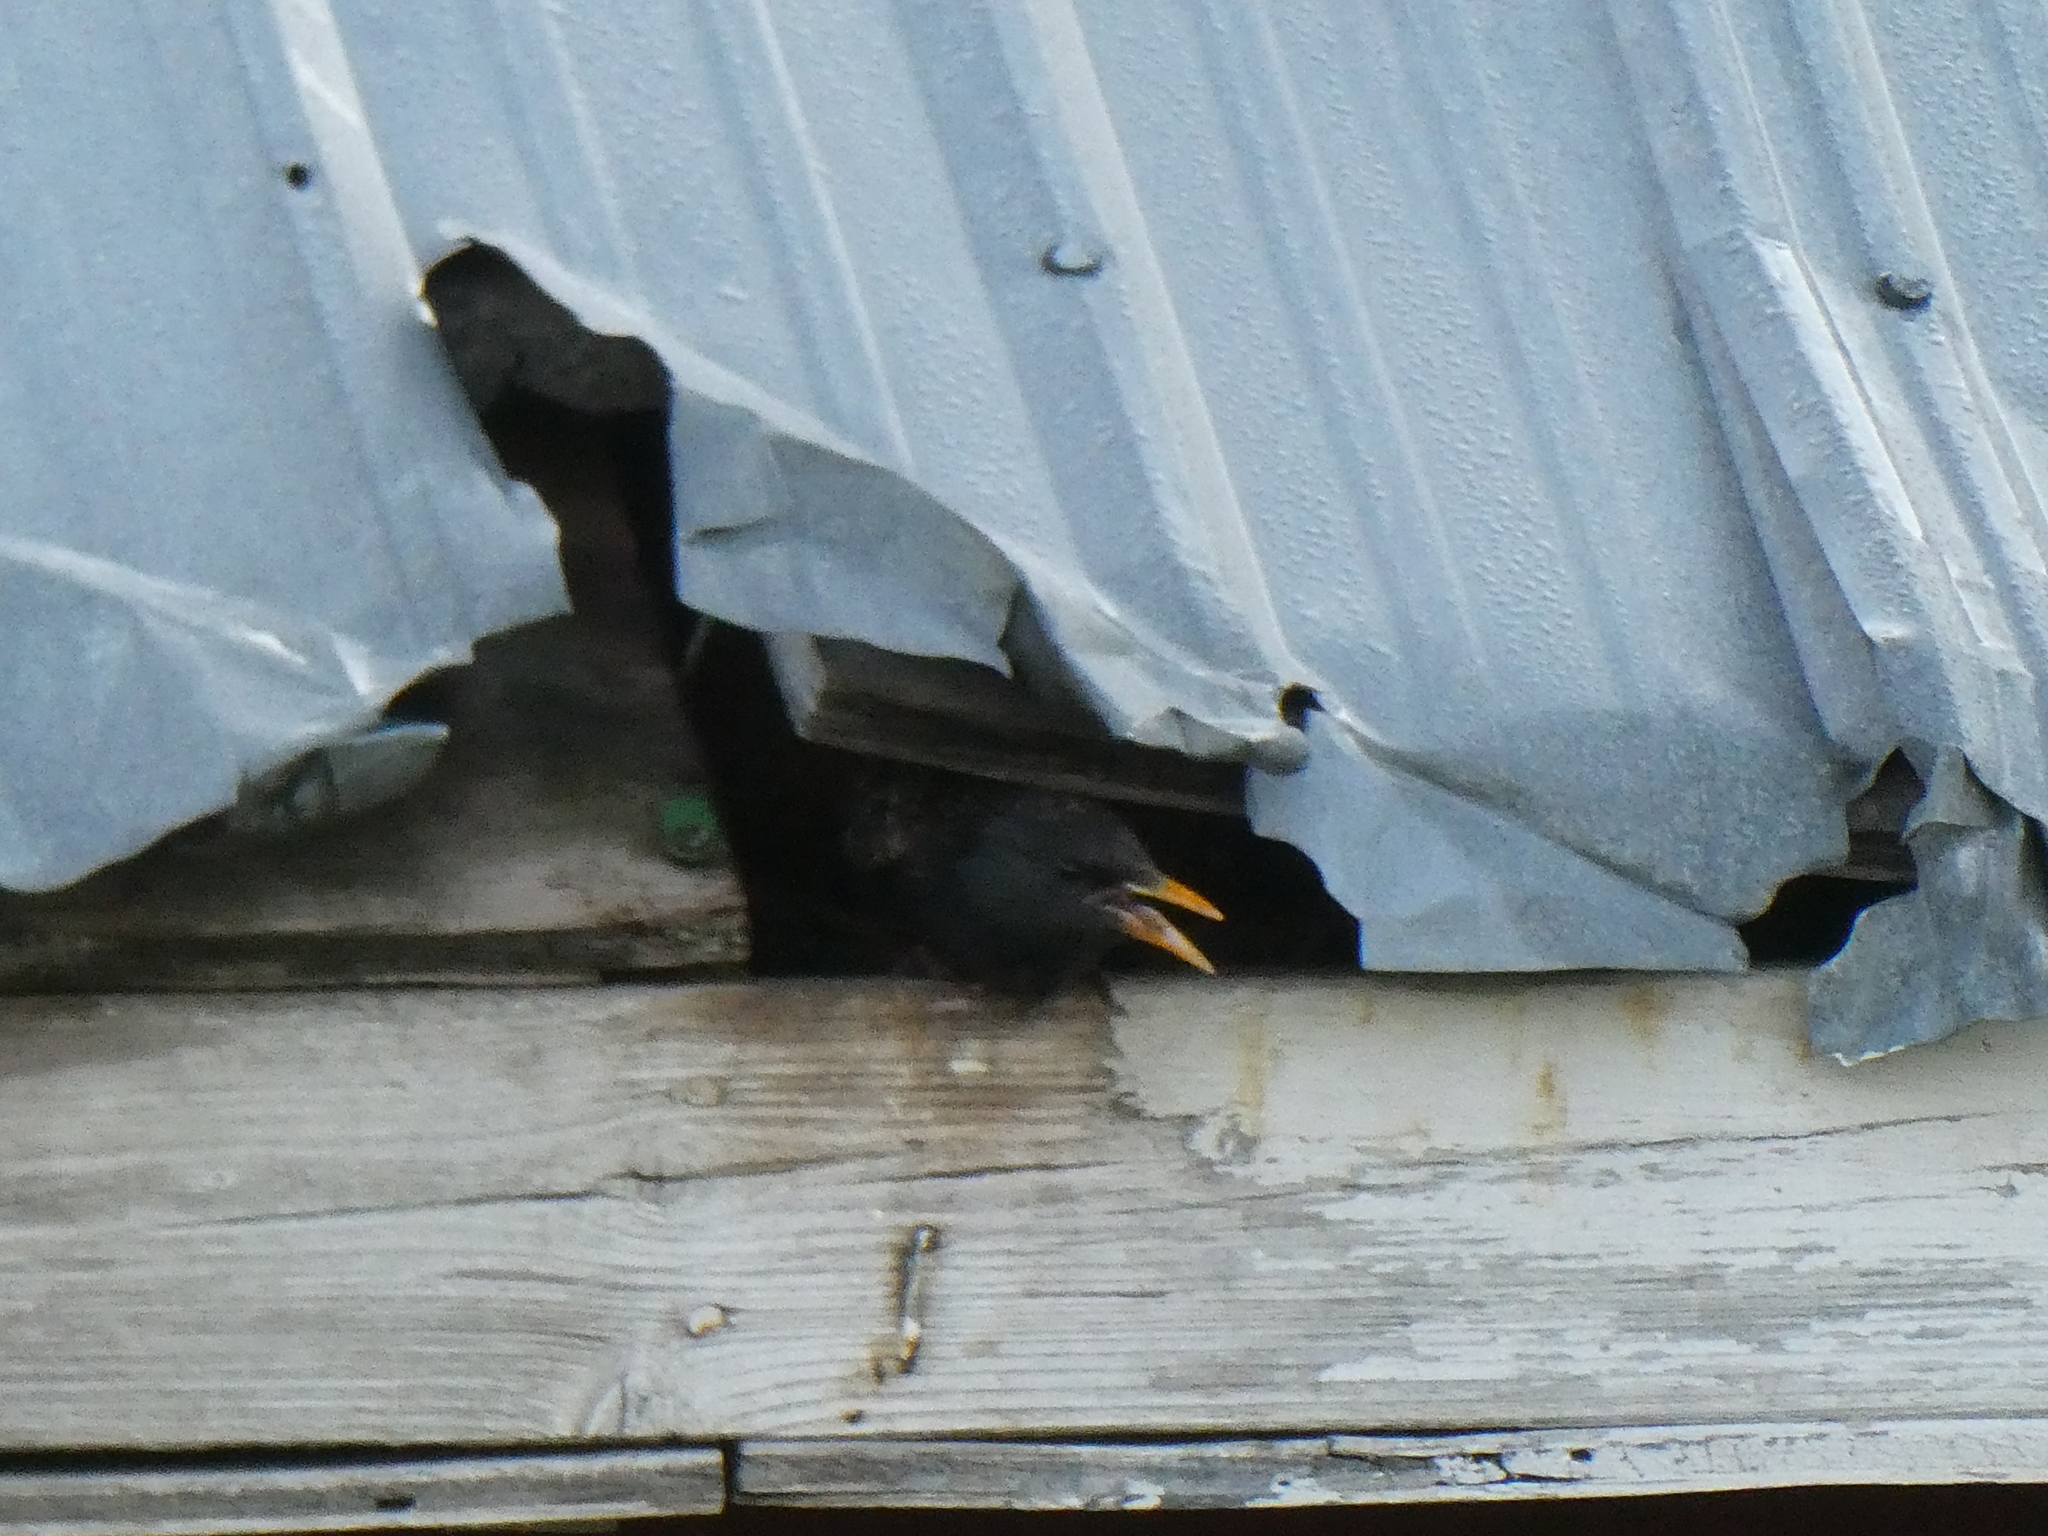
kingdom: Animalia
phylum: Chordata
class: Aves
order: Passeriformes
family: Sturnidae
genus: Sturnus
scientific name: Sturnus vulgaris
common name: Common starling
